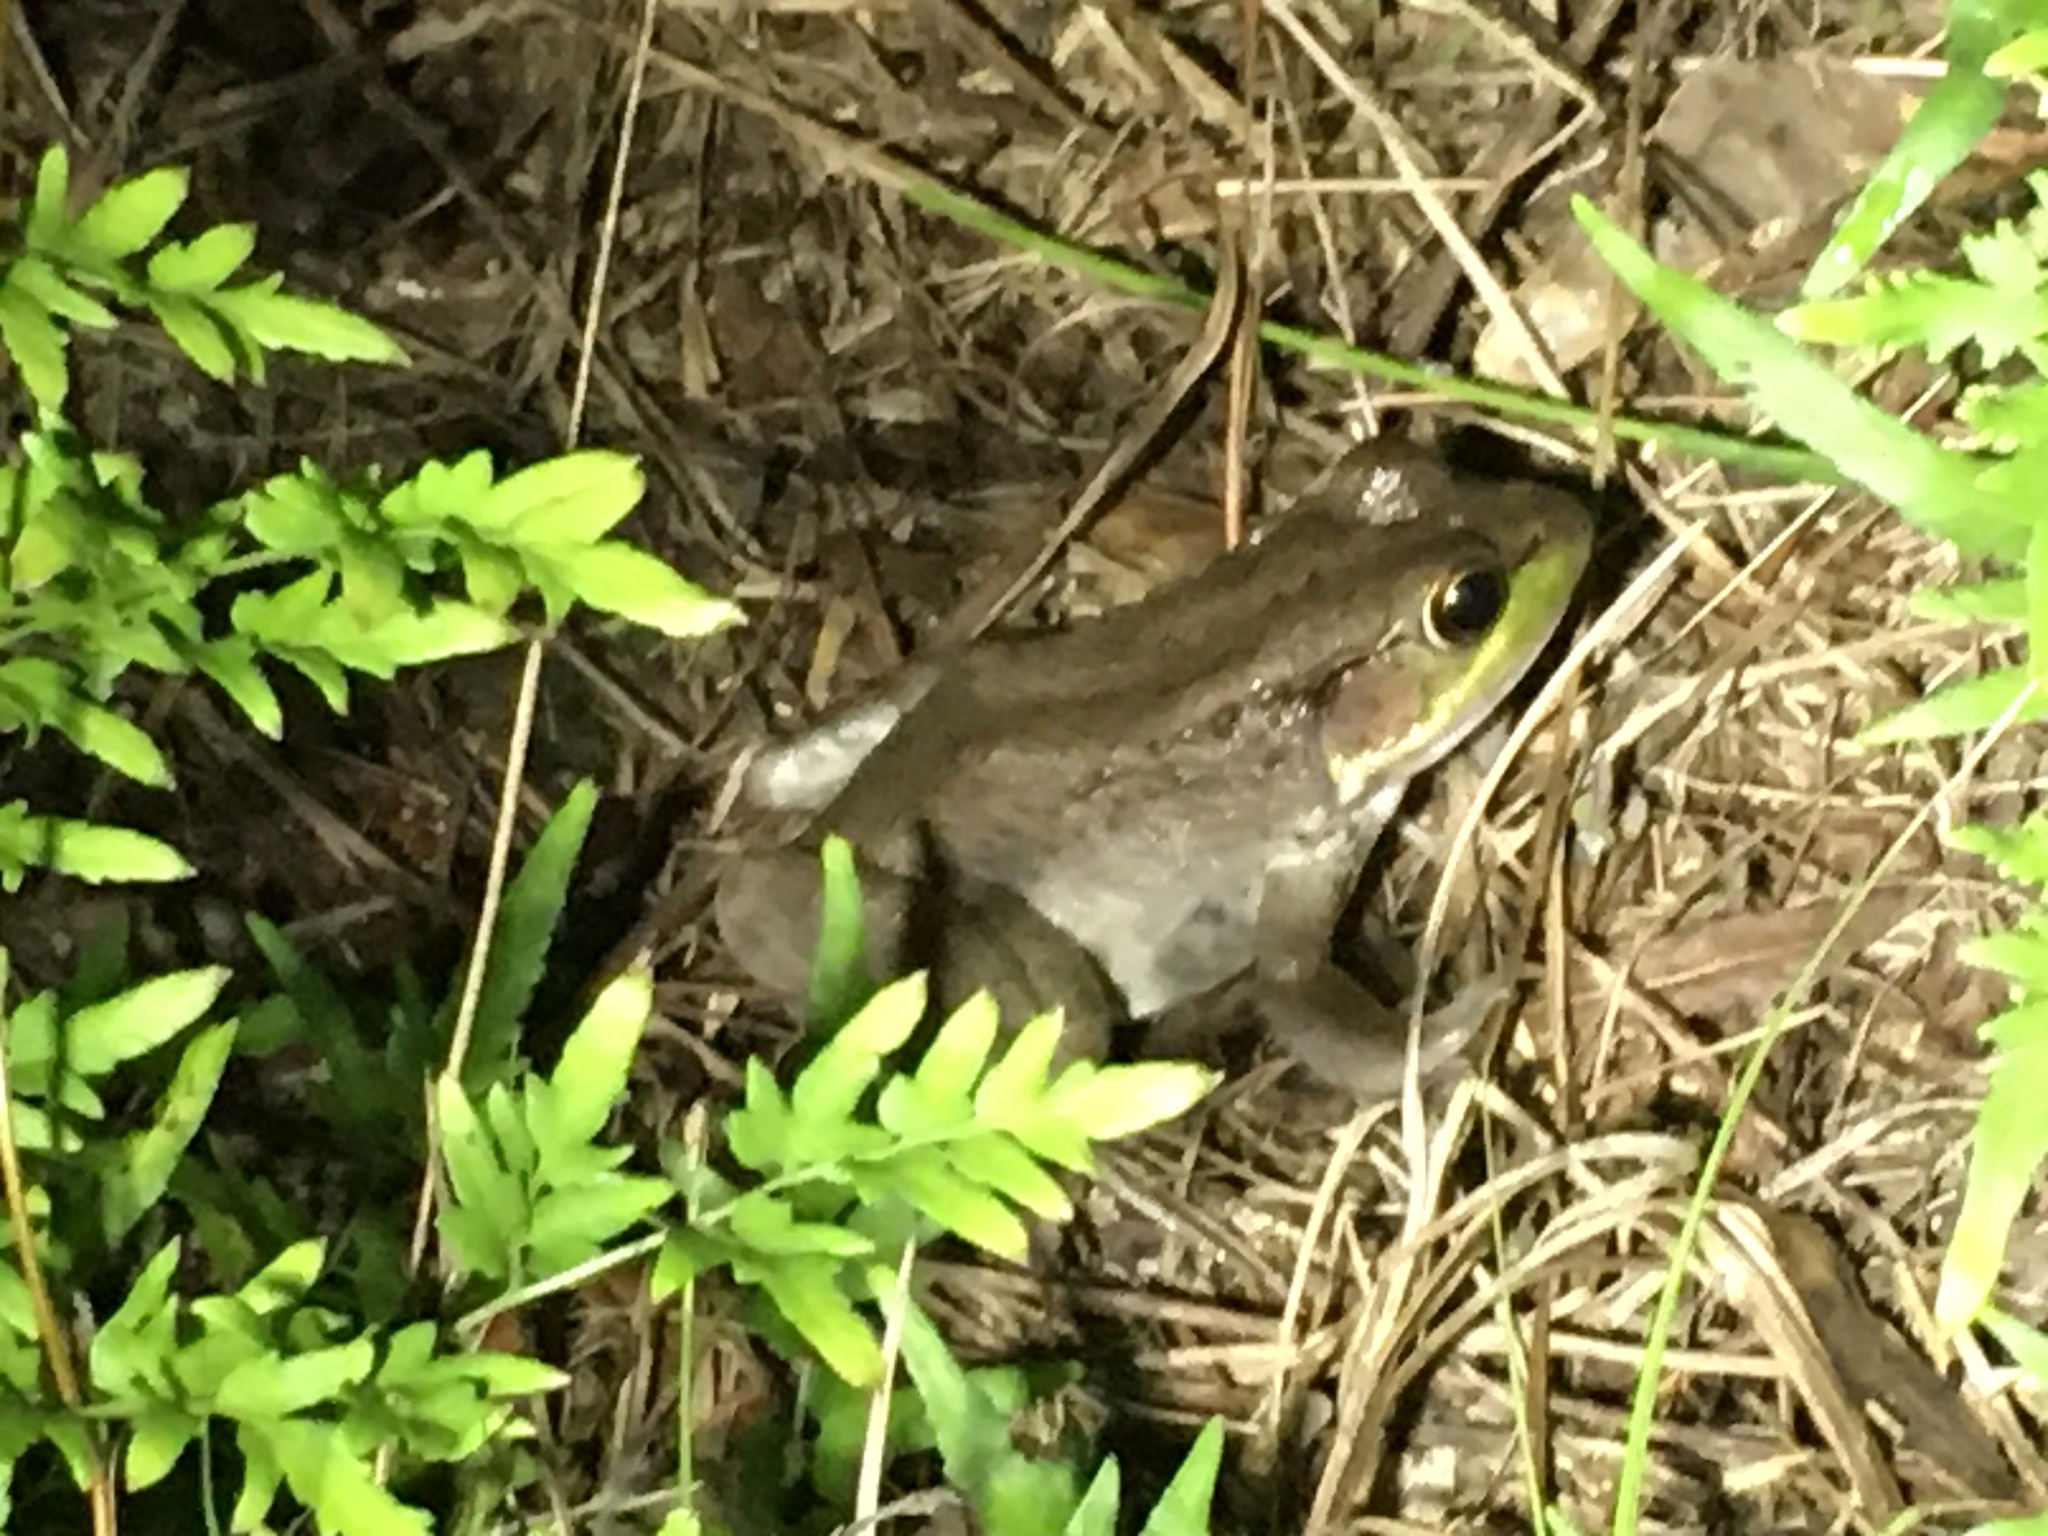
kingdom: Animalia
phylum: Chordata
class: Amphibia
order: Anura
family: Ranidae
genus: Lithobates
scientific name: Lithobates clamitans
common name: Green frog
